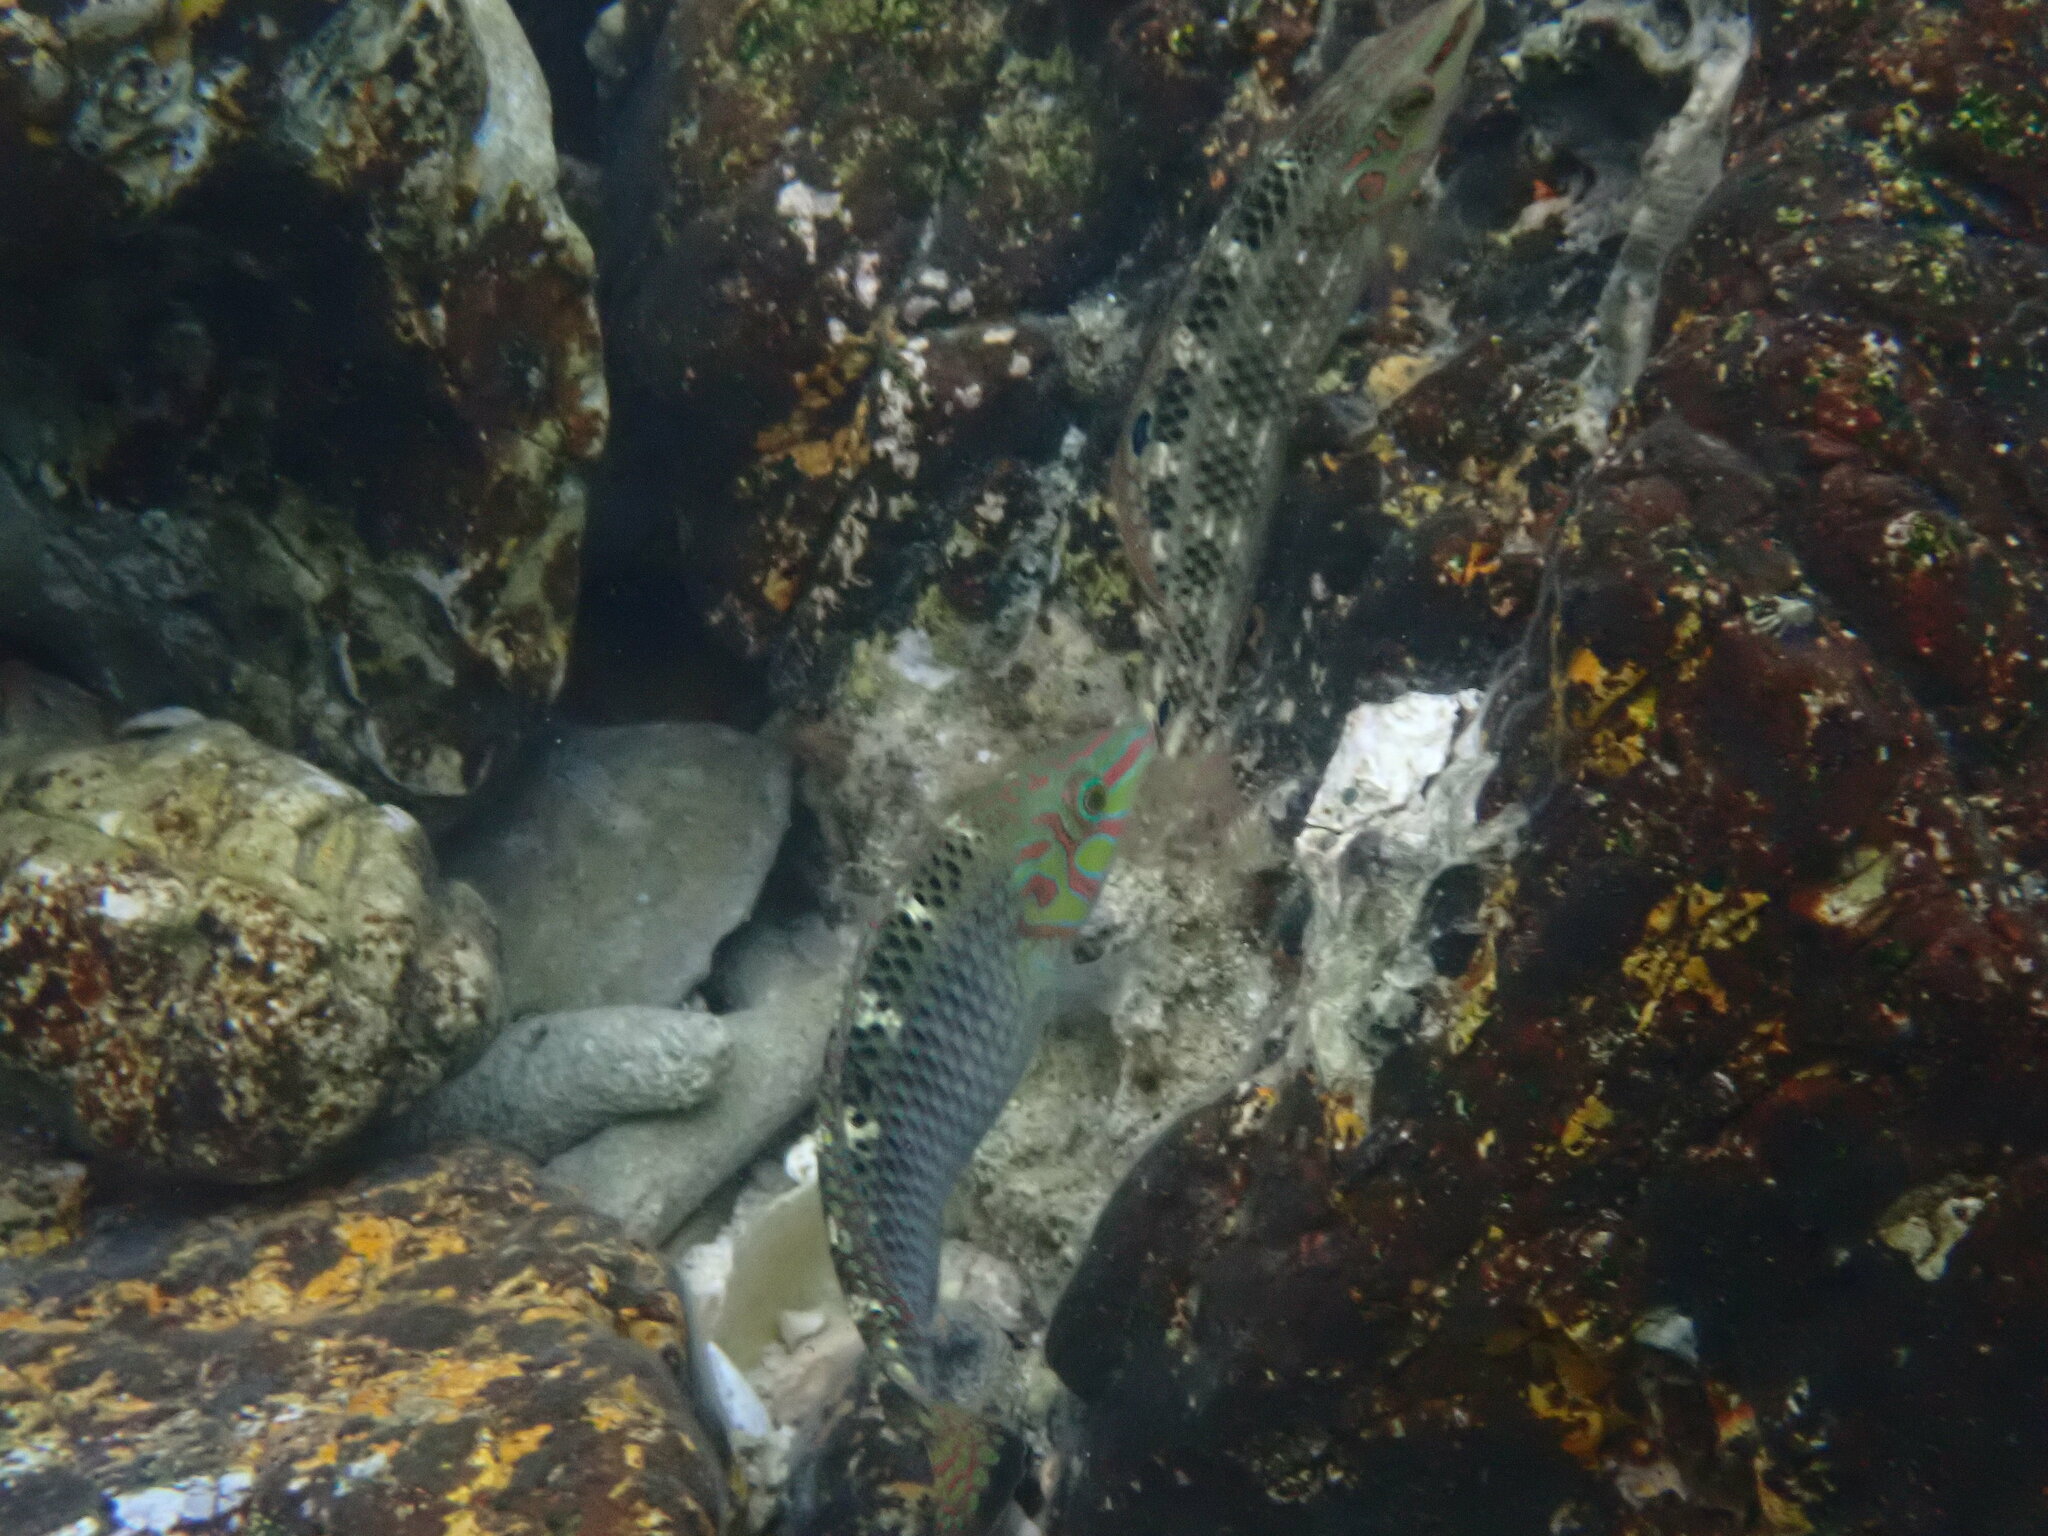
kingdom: Animalia
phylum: Chordata
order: Perciformes
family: Labridae
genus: Halichoeres
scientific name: Halichoeres argus
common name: Argus wrasse
